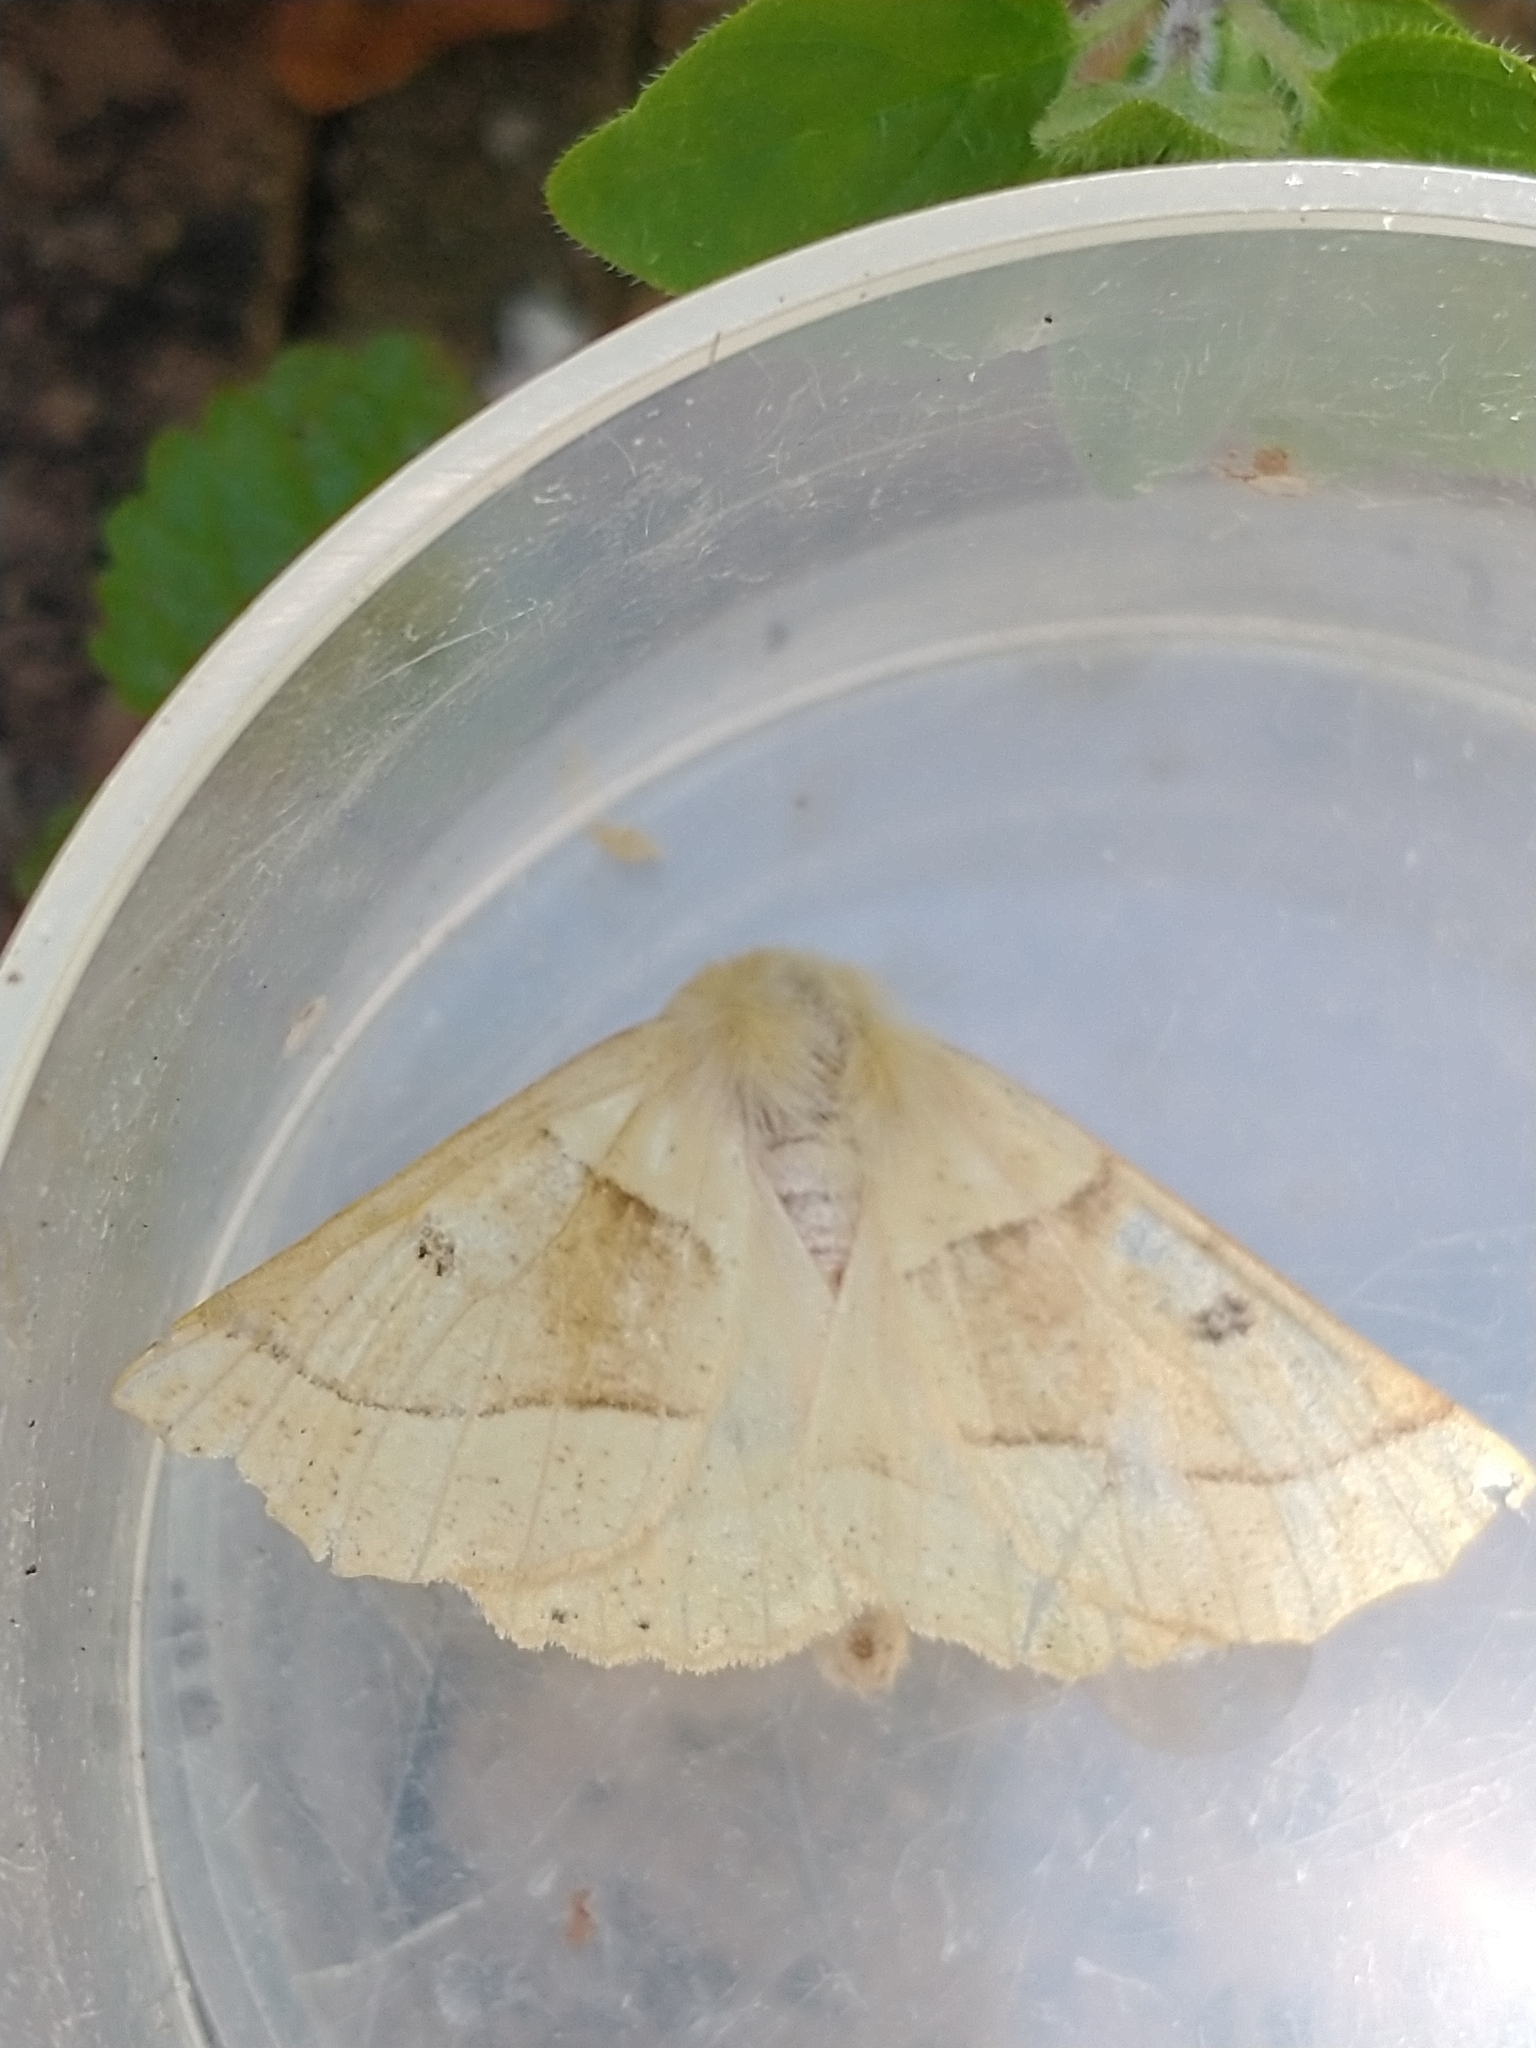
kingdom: Animalia
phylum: Arthropoda
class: Insecta
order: Lepidoptera
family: Geometridae
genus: Crocallis
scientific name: Crocallis elinguaria
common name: Scalloped oak
